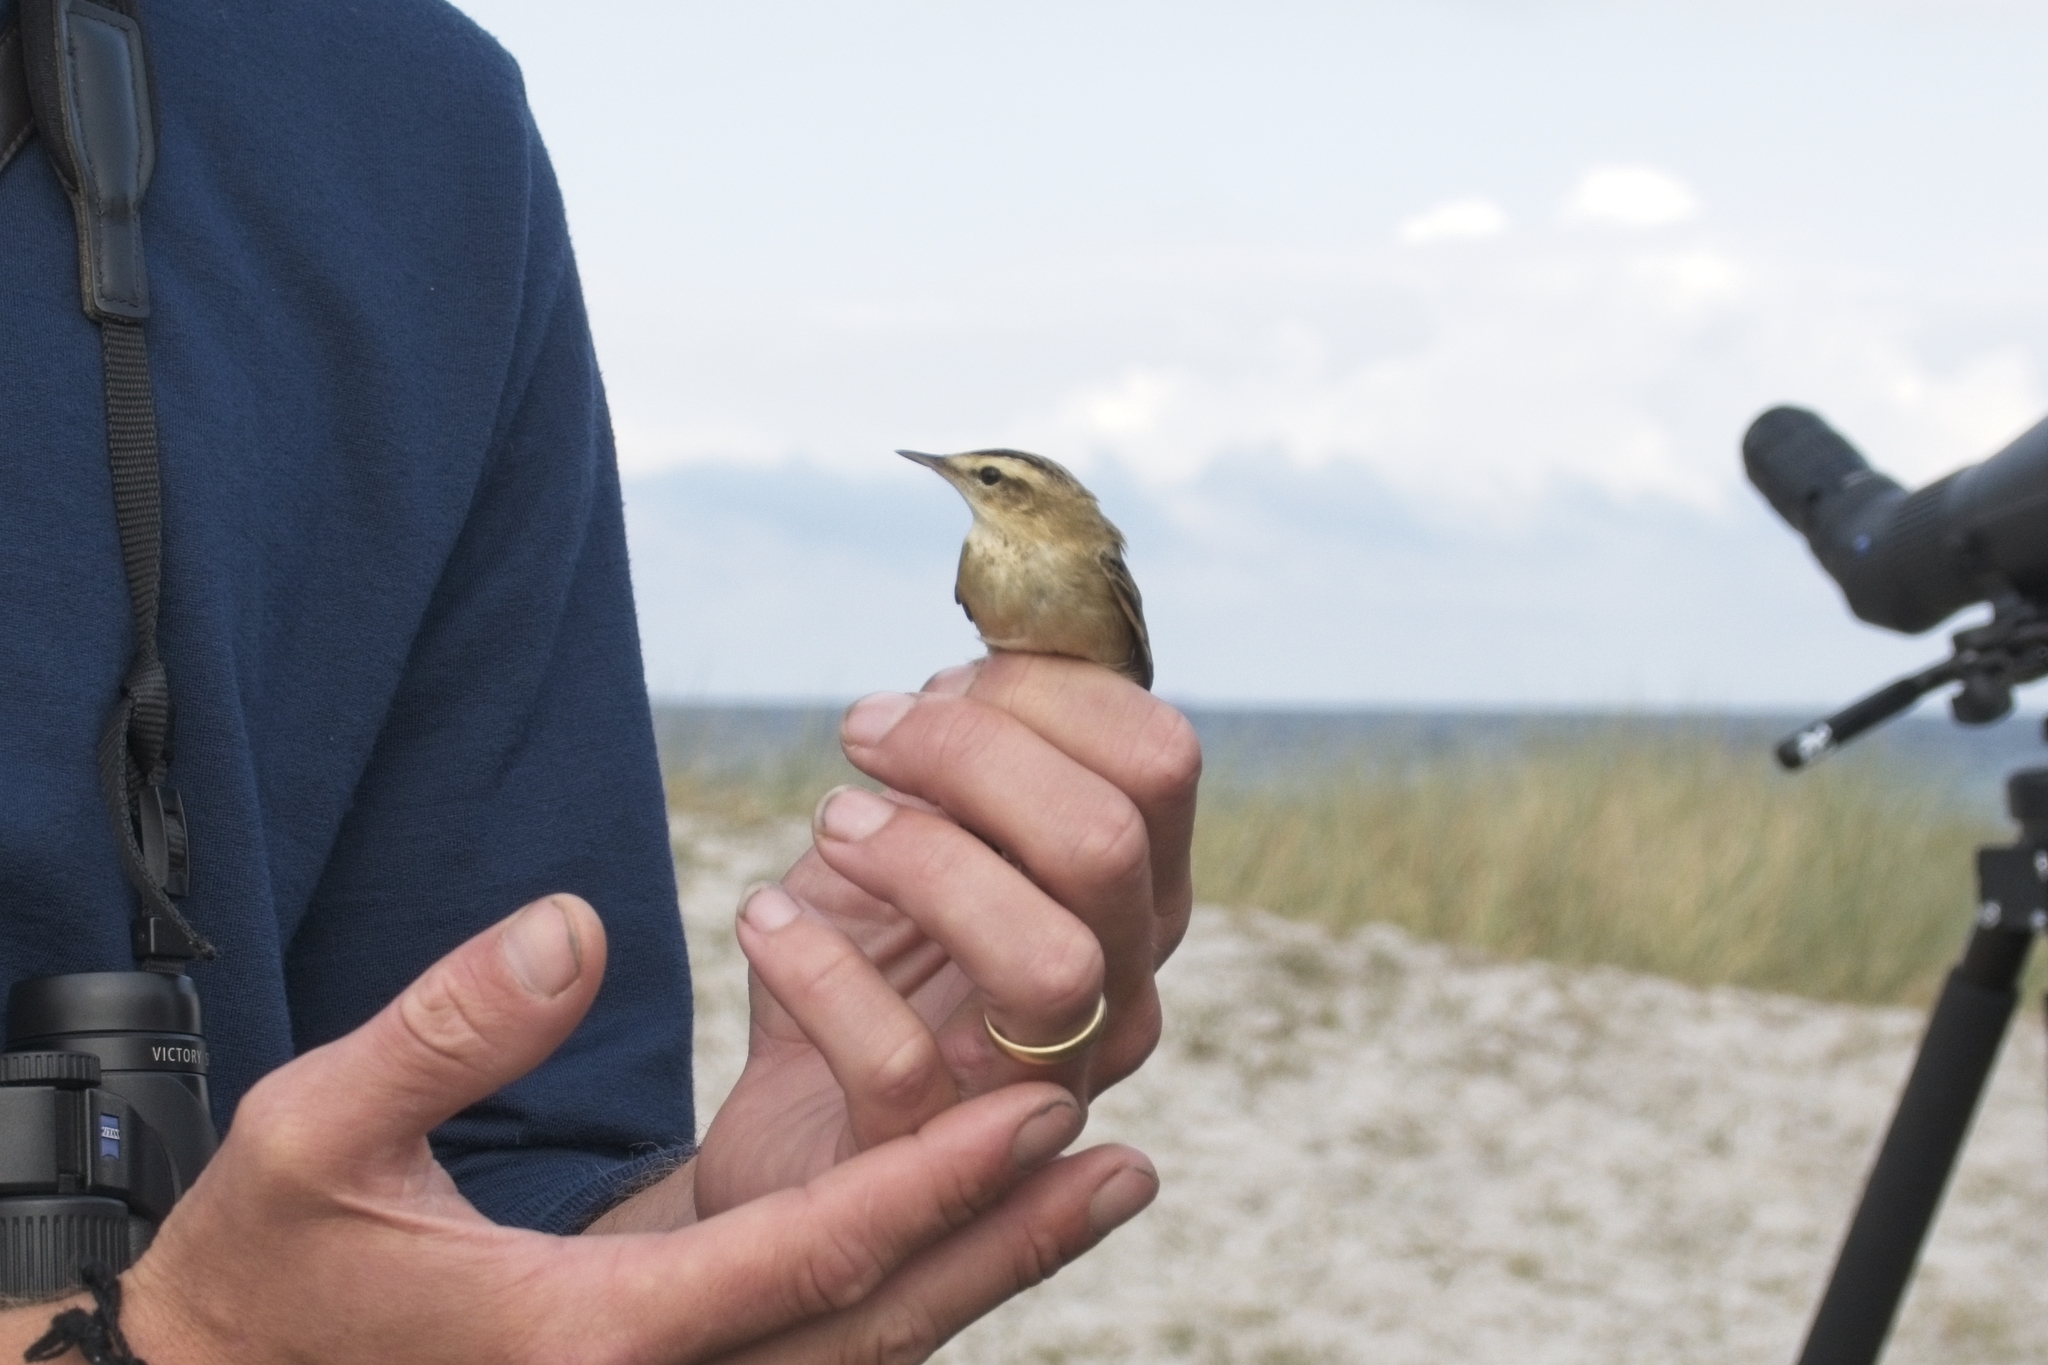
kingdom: Animalia
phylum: Chordata
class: Aves
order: Passeriformes
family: Acrocephalidae
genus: Acrocephalus
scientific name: Acrocephalus schoenobaenus
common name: Sedge warbler
